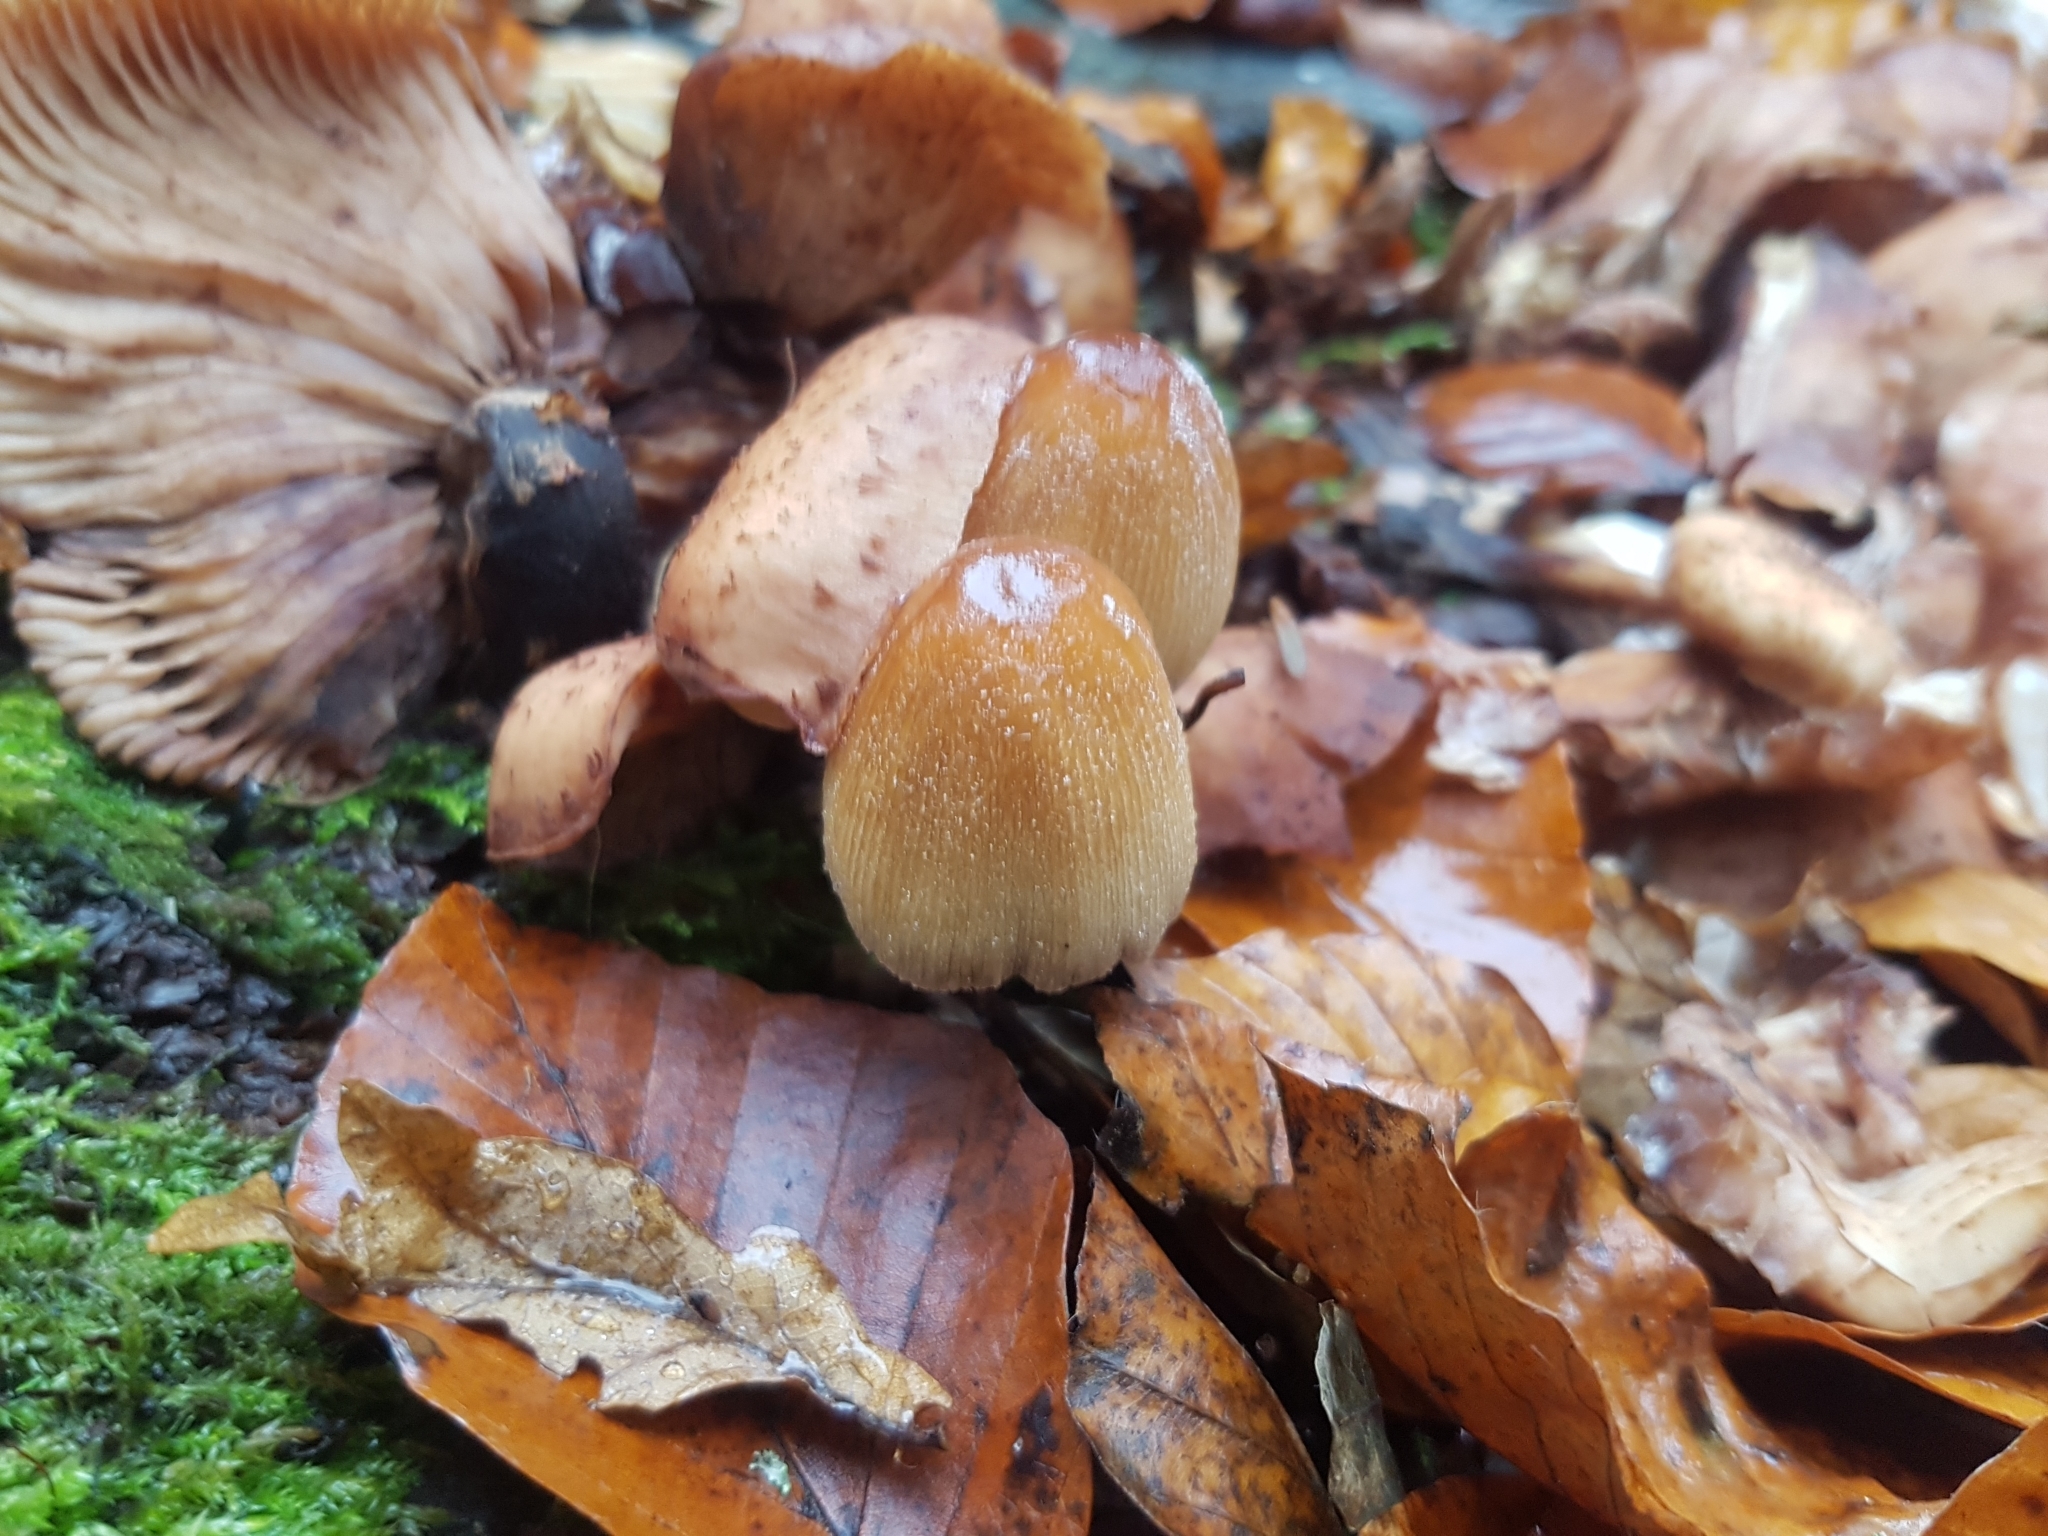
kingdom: Fungi
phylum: Basidiomycota
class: Agaricomycetes
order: Agaricales
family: Psathyrellaceae
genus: Coprinellus
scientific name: Coprinellus micaceus
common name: Glistening ink-cap
